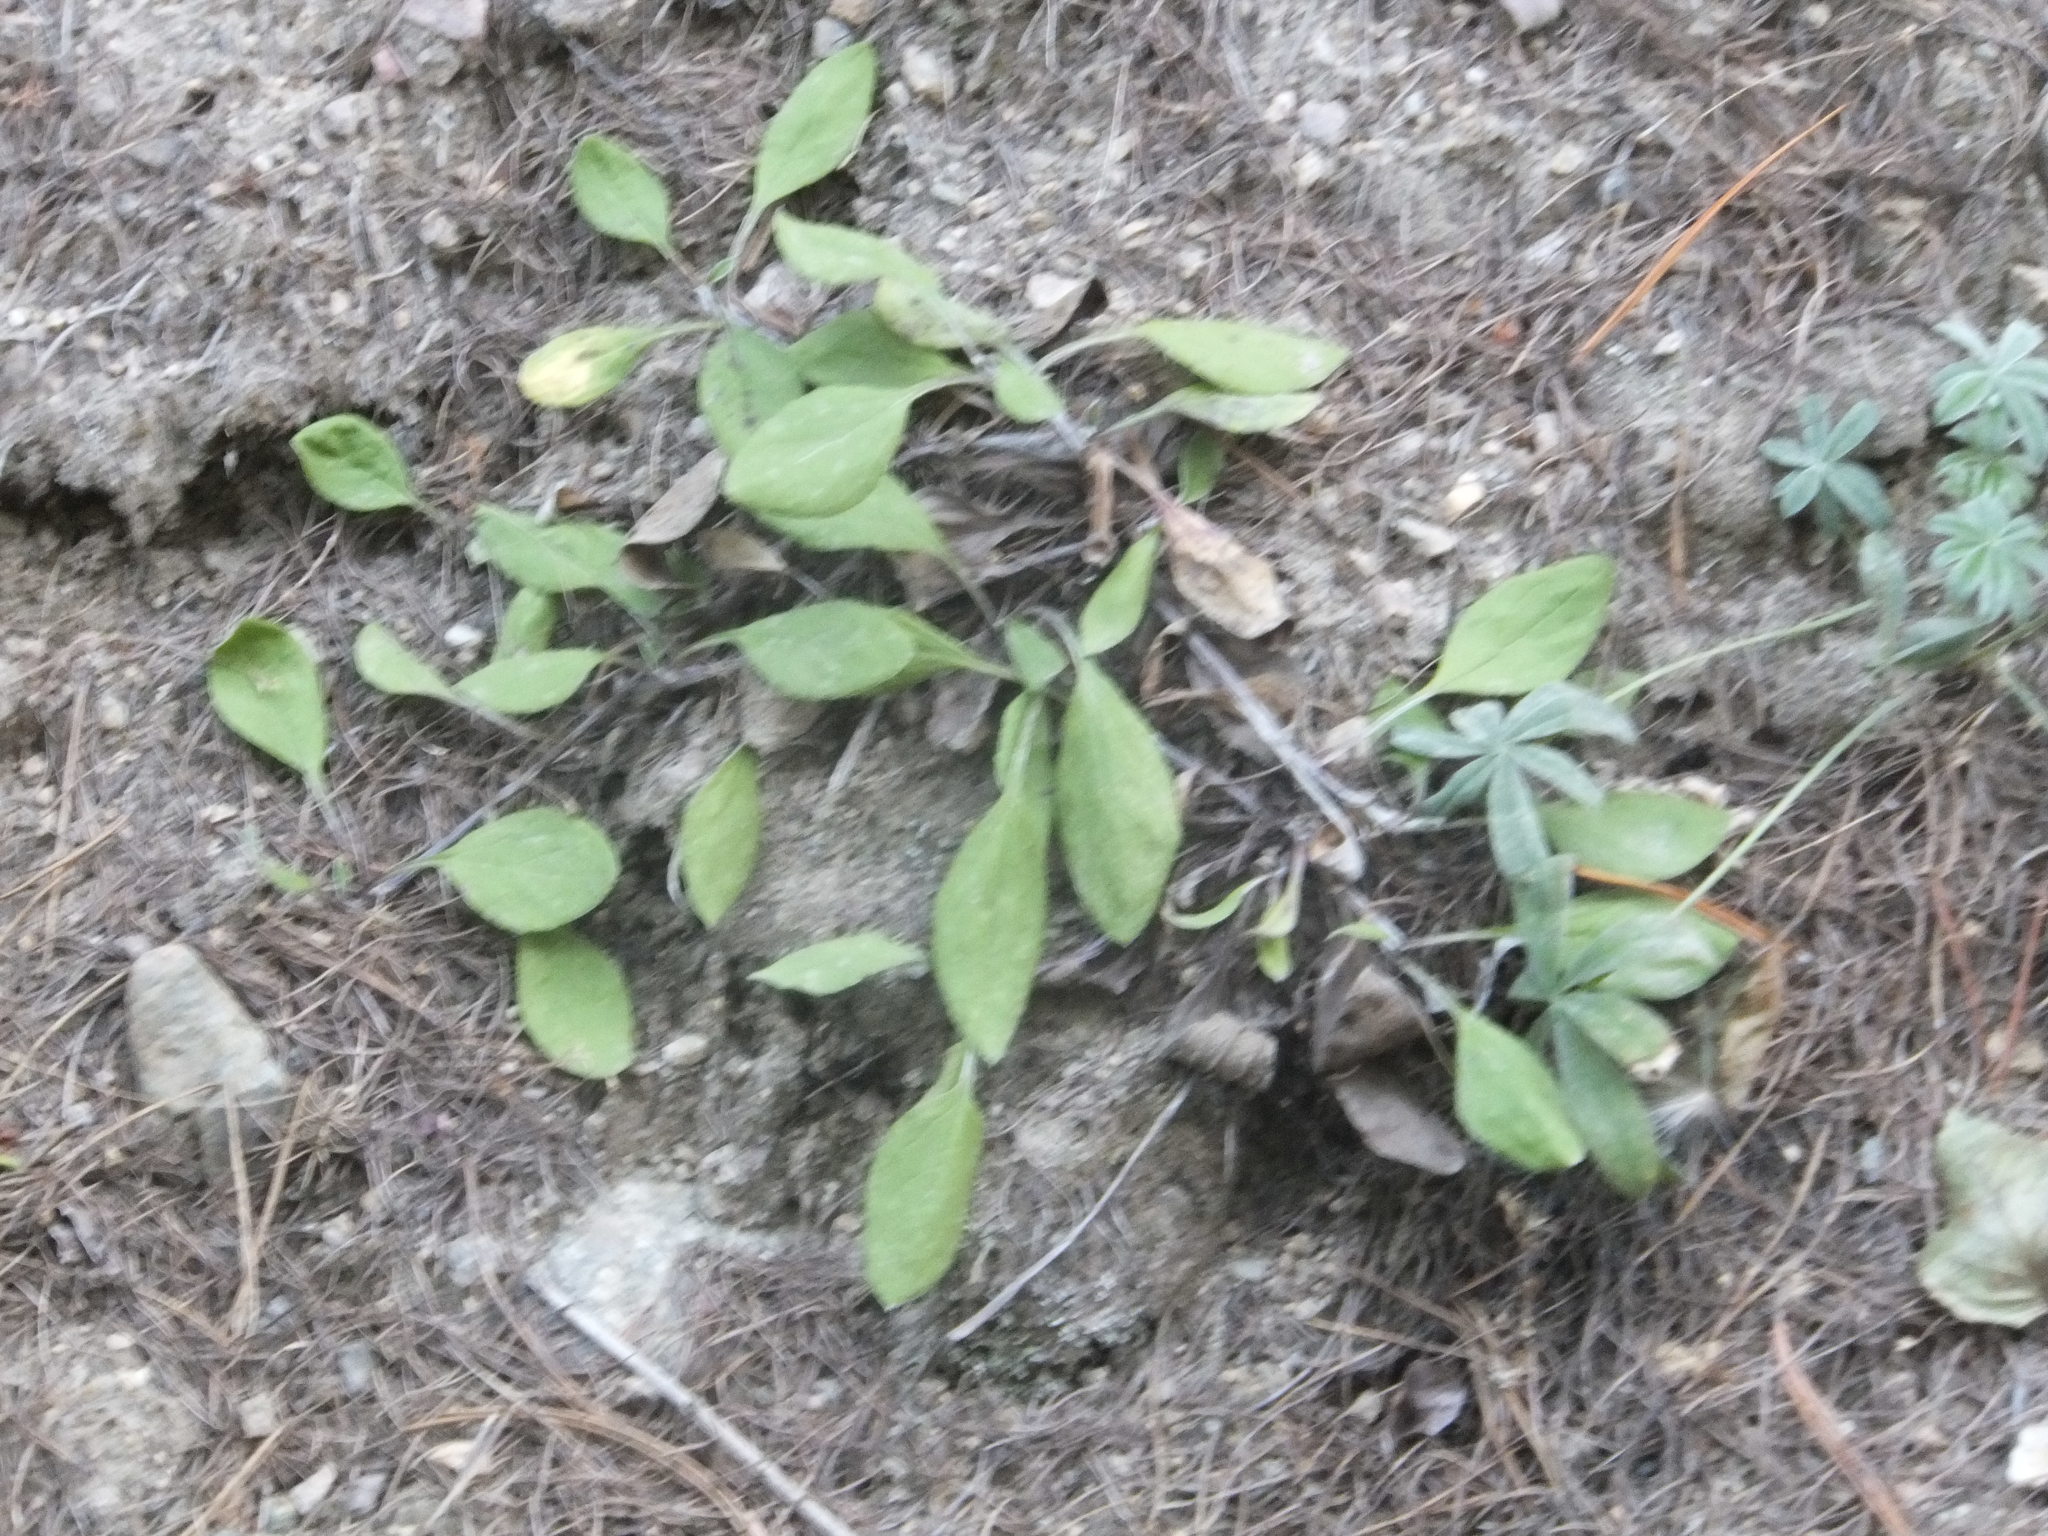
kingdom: Plantae
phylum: Tracheophyta
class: Magnoliopsida
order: Asterales
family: Asteraceae
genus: Antennaria
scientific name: Antennaria racemosa
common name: Racemose pussytoes
